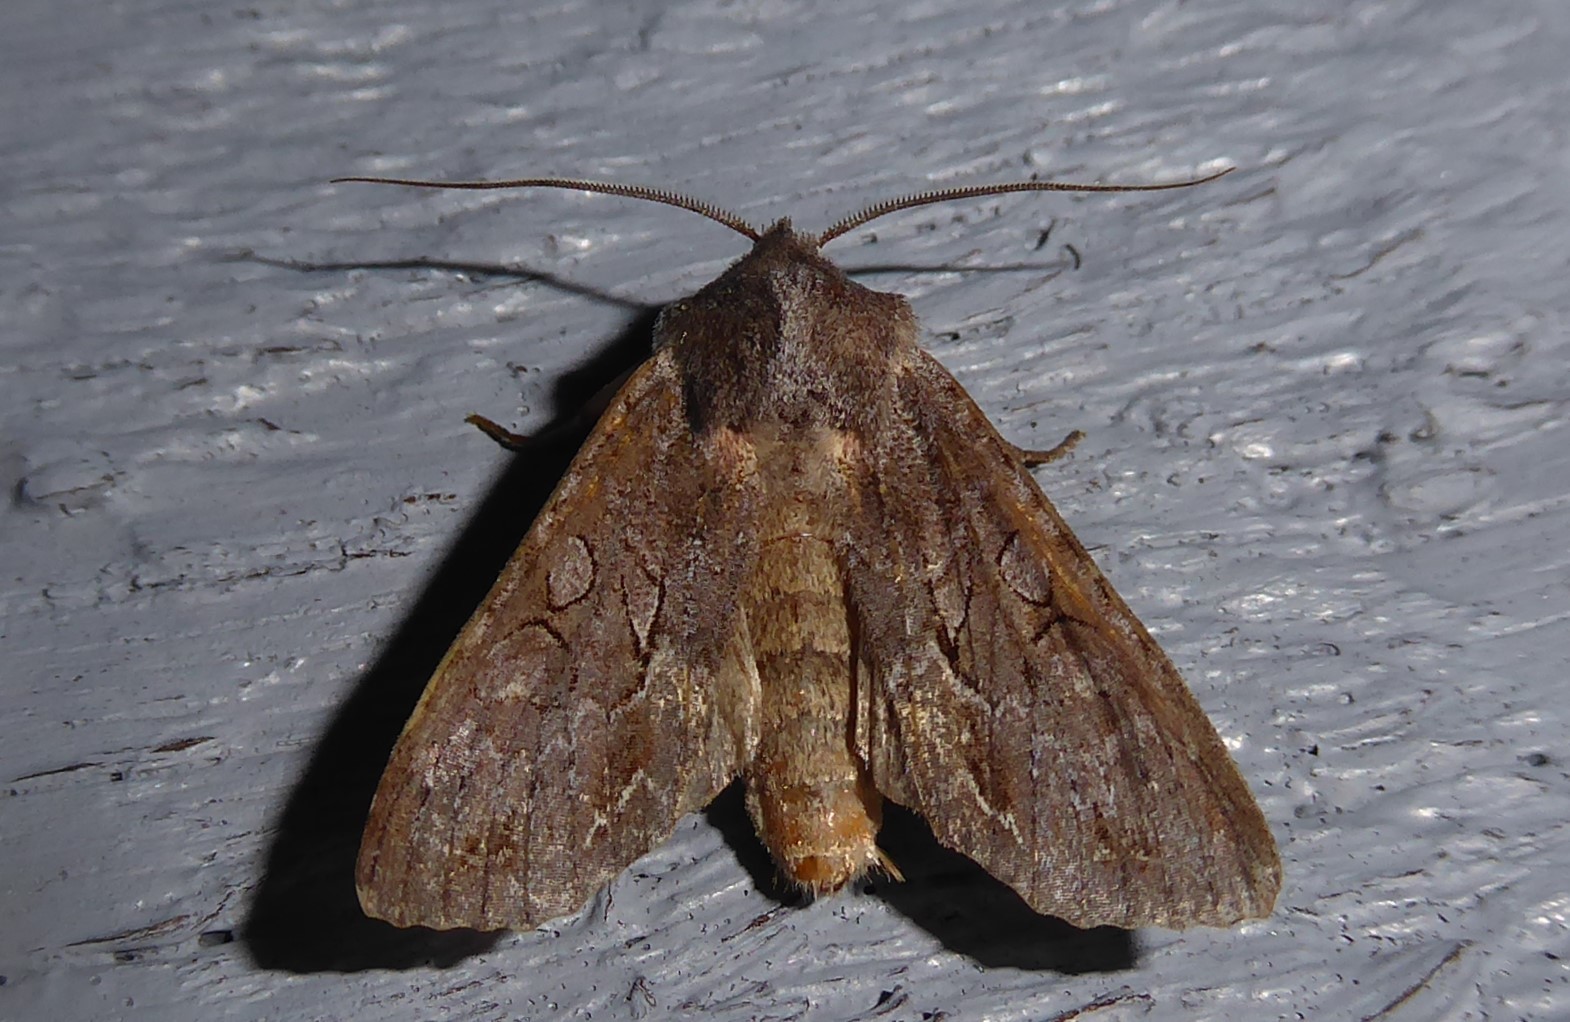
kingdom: Animalia
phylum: Arthropoda
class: Insecta
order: Lepidoptera
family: Noctuidae
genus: Ichneutica
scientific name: Ichneutica
